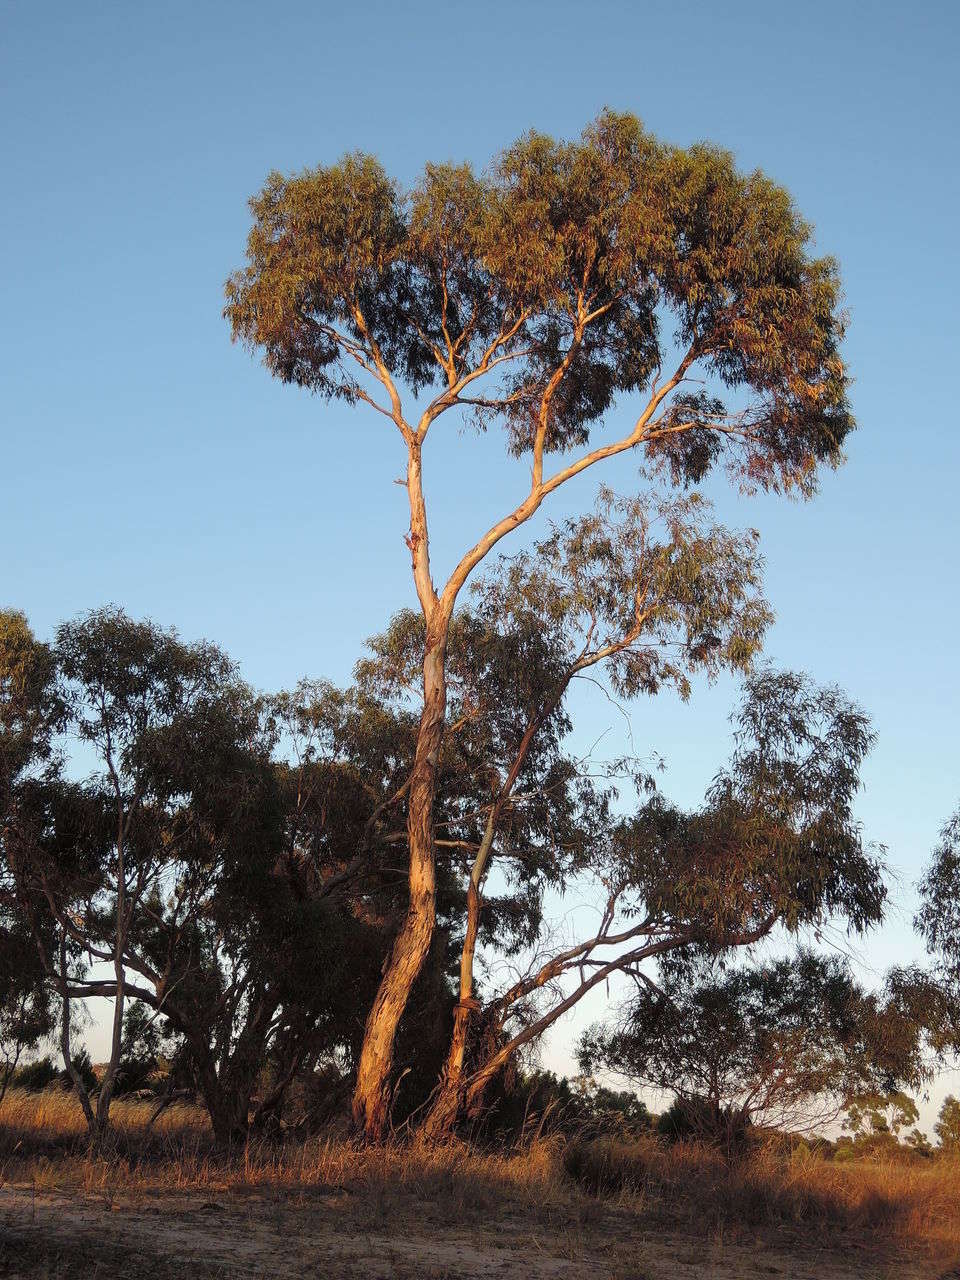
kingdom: Plantae
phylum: Tracheophyta
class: Magnoliopsida
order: Myrtales
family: Myrtaceae
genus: Eucalyptus
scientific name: Eucalyptus leucoxylon
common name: Blue gum
